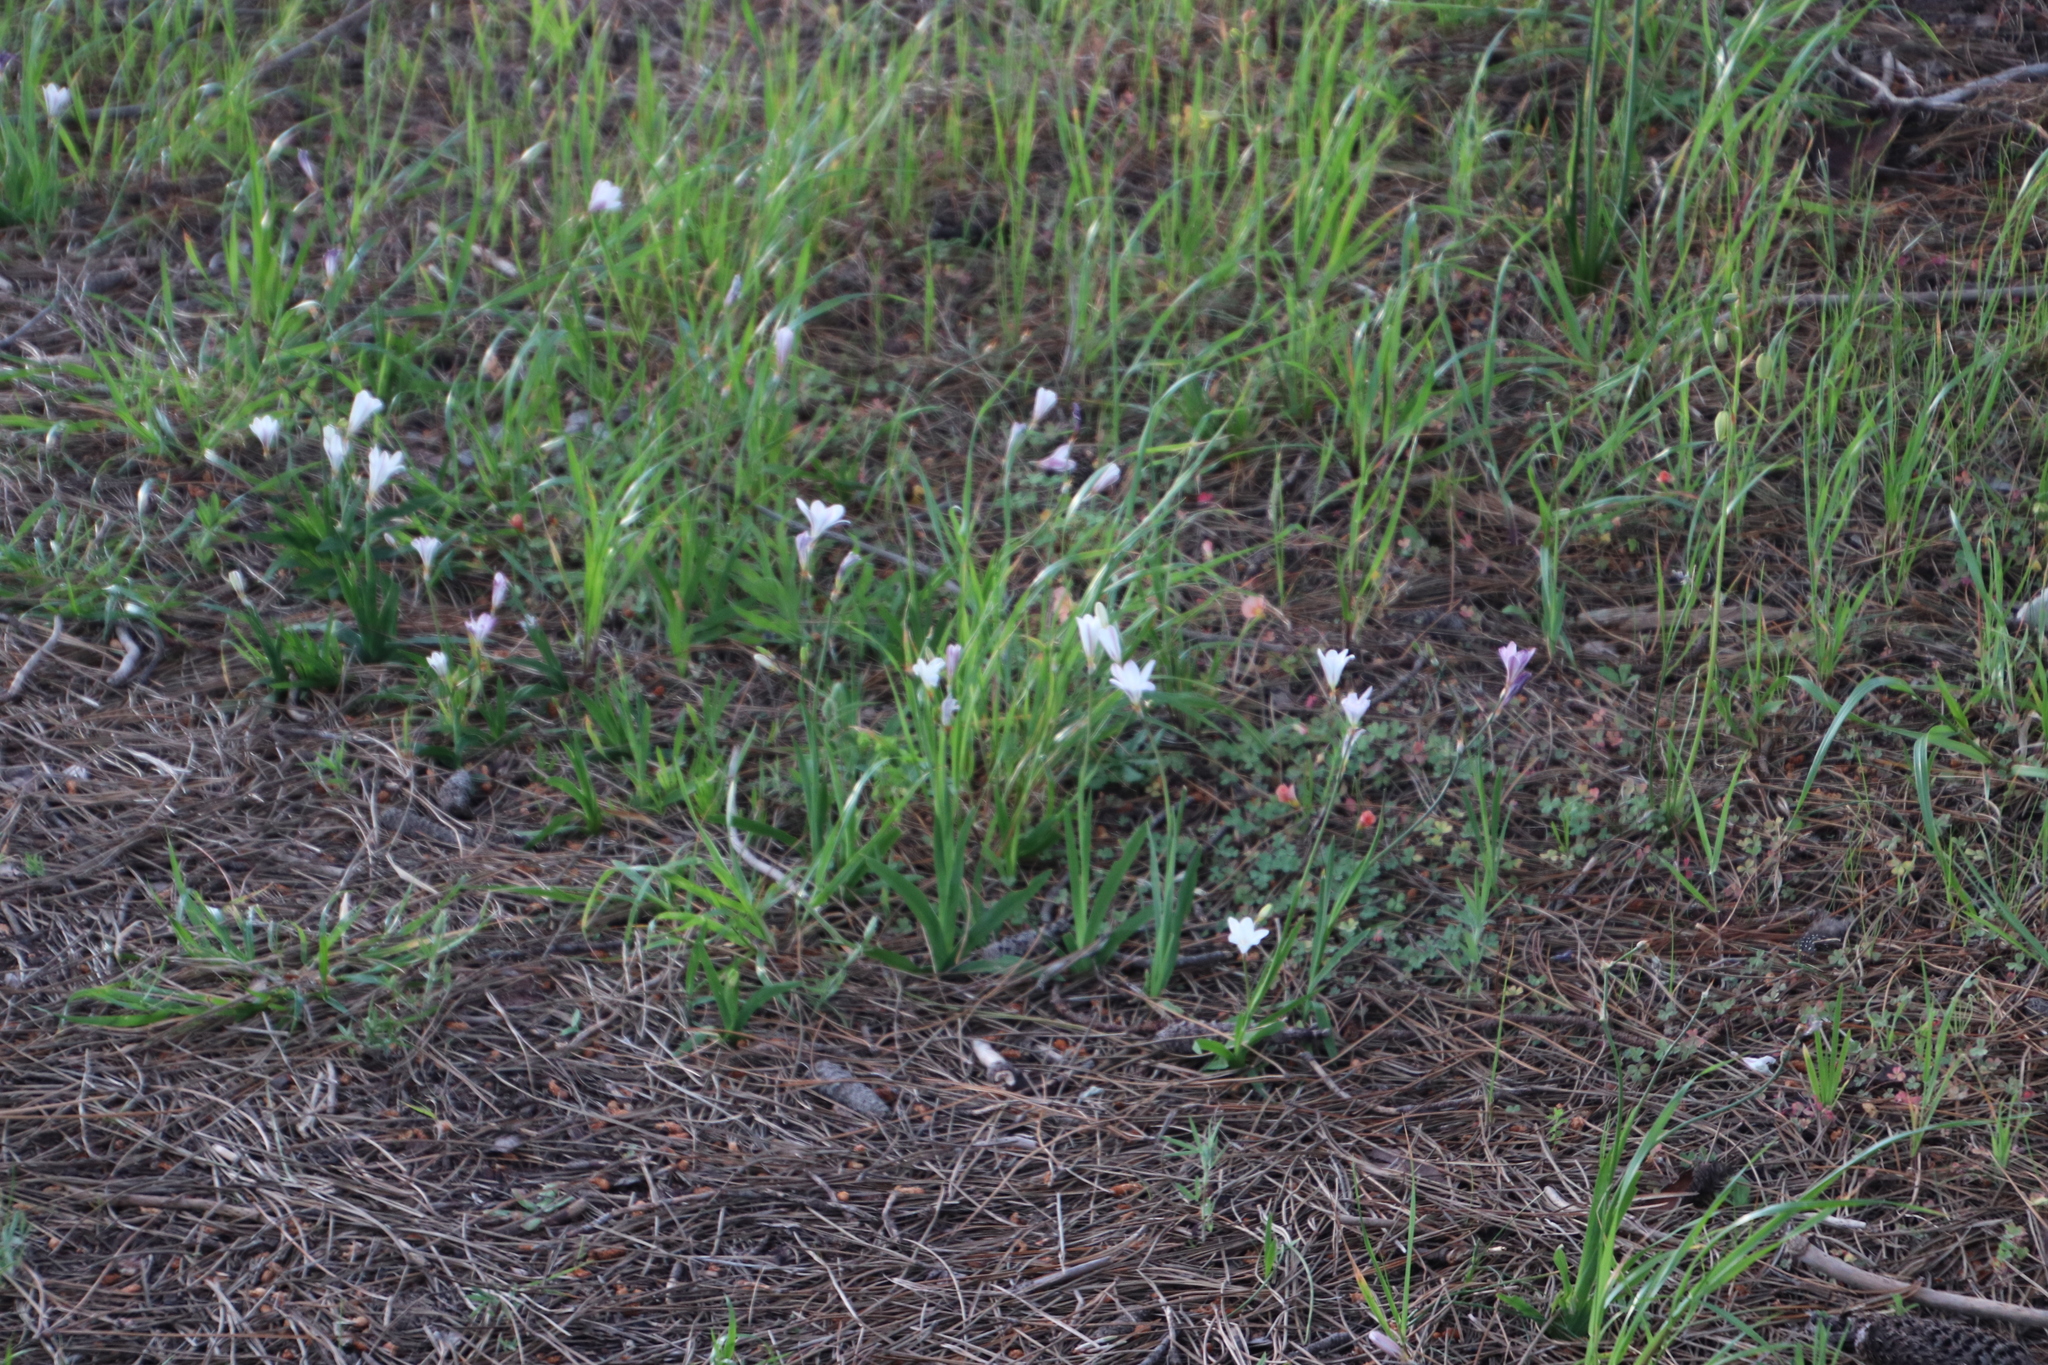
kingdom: Plantae
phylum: Tracheophyta
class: Liliopsida
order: Asparagales
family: Iridaceae
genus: Sparaxis
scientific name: Sparaxis bulbifera
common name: Harlequin-flower
